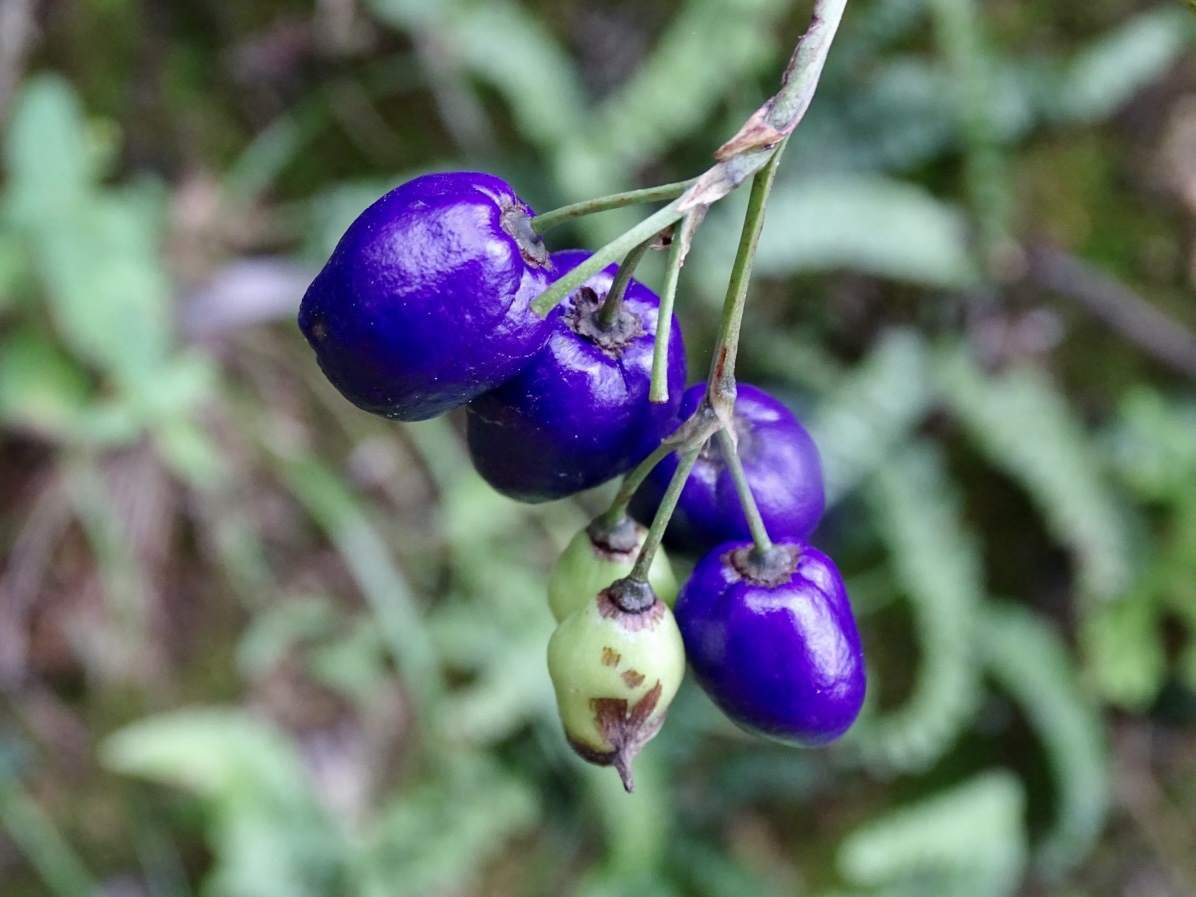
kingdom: Plantae
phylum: Tracheophyta
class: Liliopsida
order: Asparagales
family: Asphodelaceae
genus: Dianella
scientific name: Dianella ensifolia
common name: New zealand lilyplant
